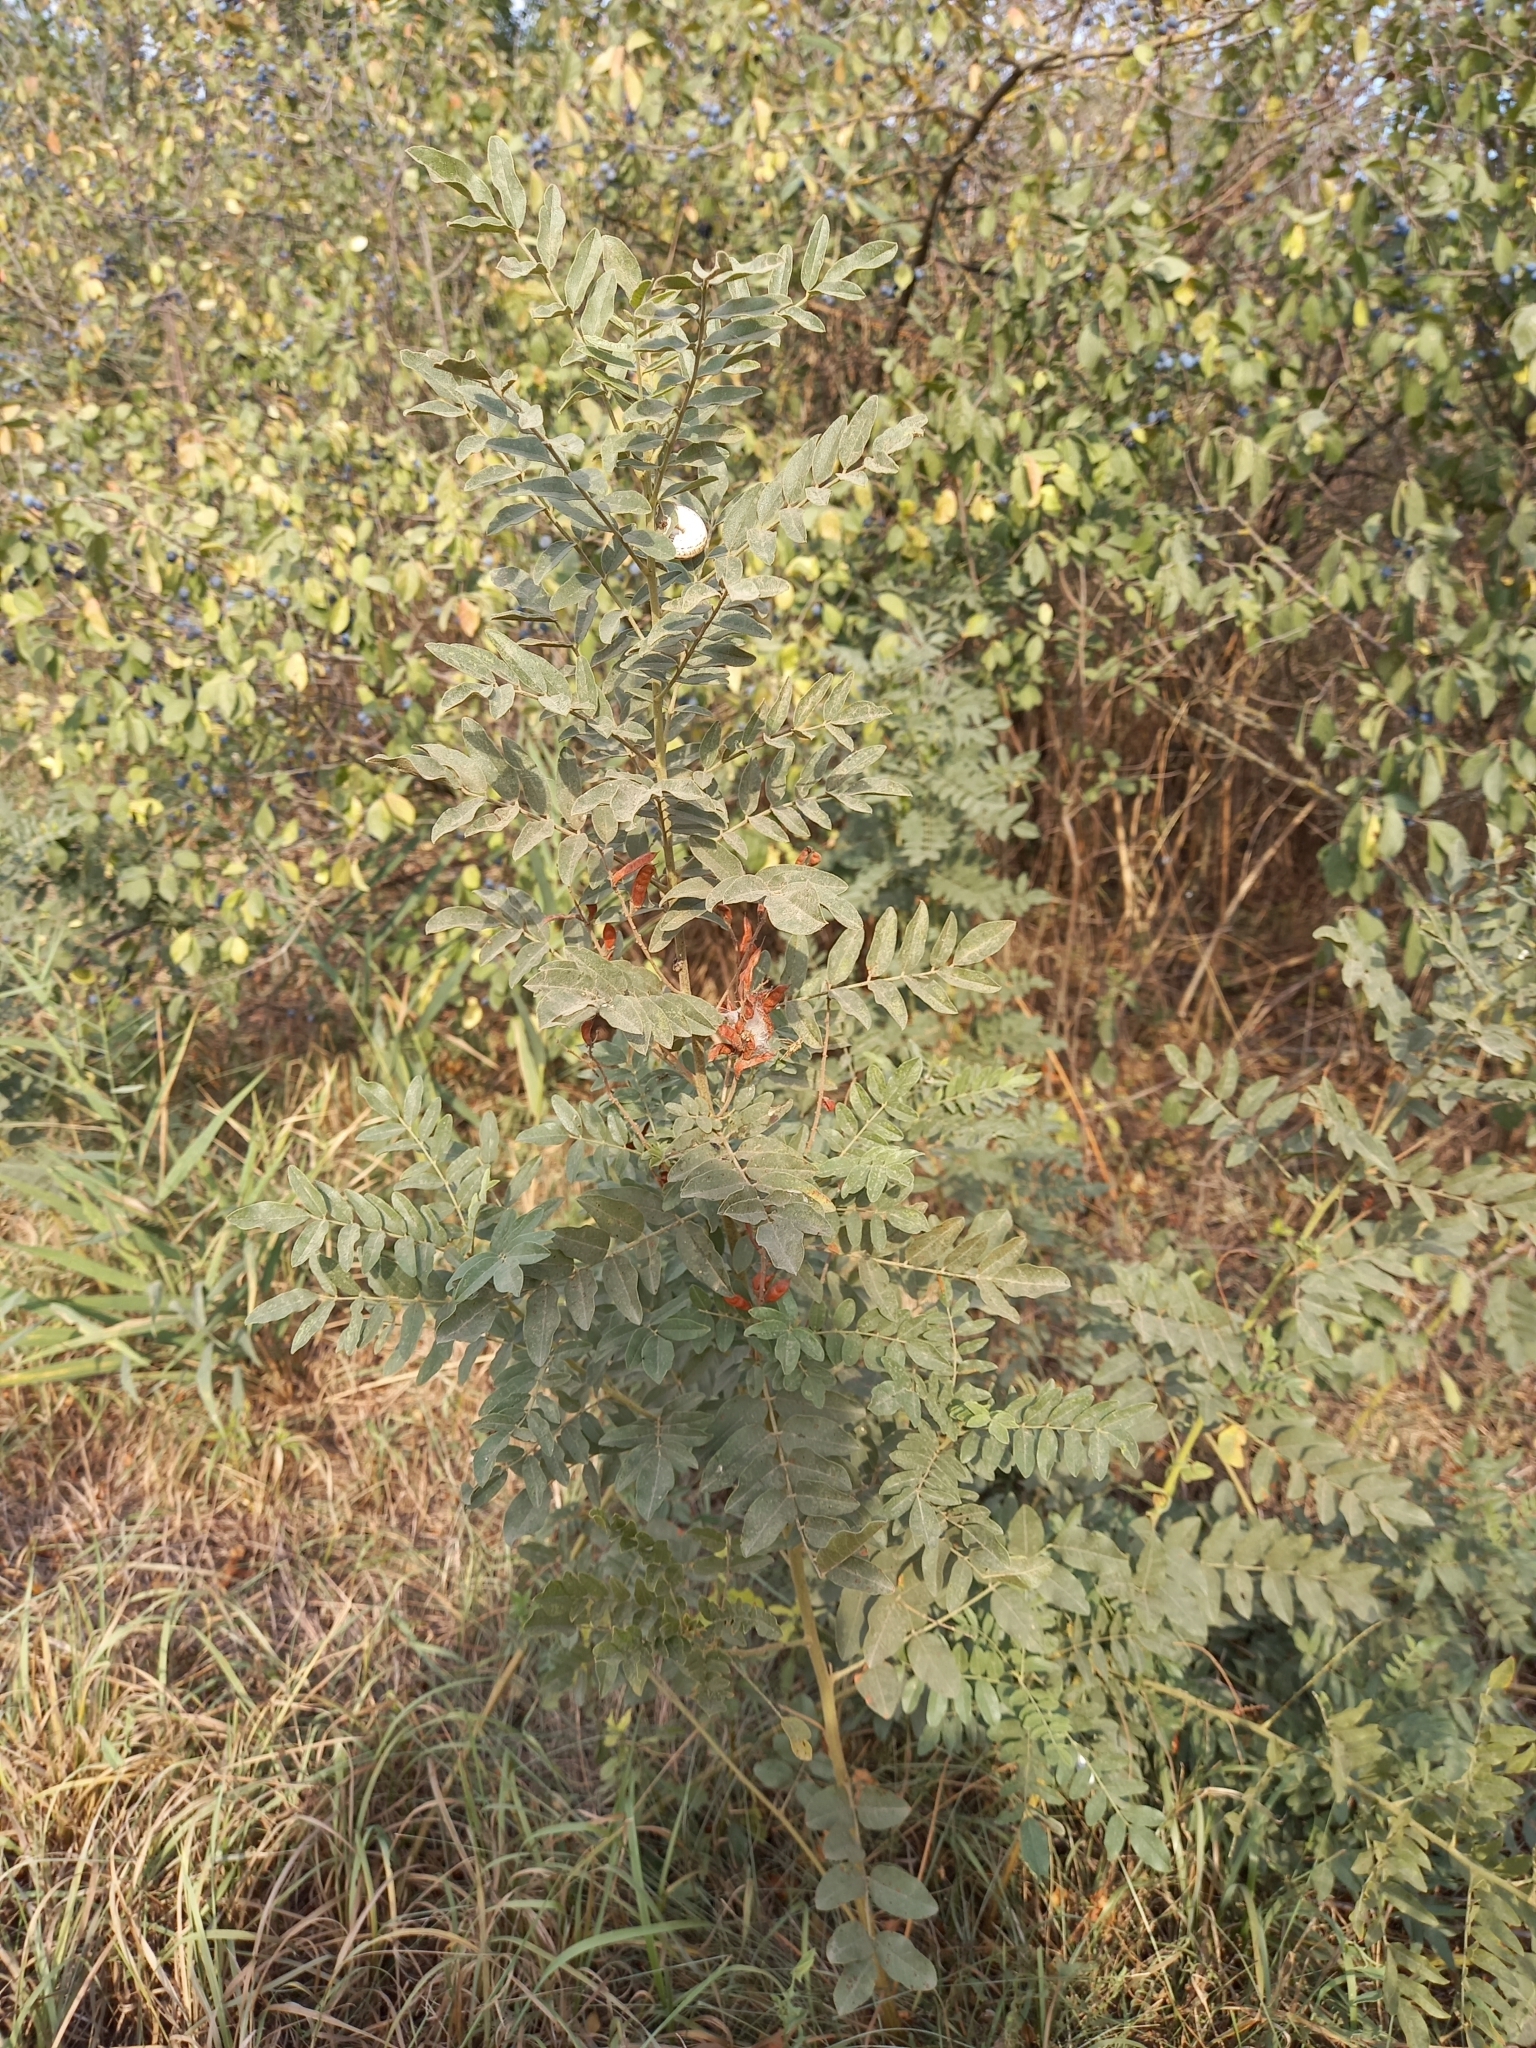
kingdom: Plantae
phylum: Tracheophyta
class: Magnoliopsida
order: Fabales
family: Fabaceae
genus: Glycyrrhiza
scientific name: Glycyrrhiza glabra
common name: Liquorice
